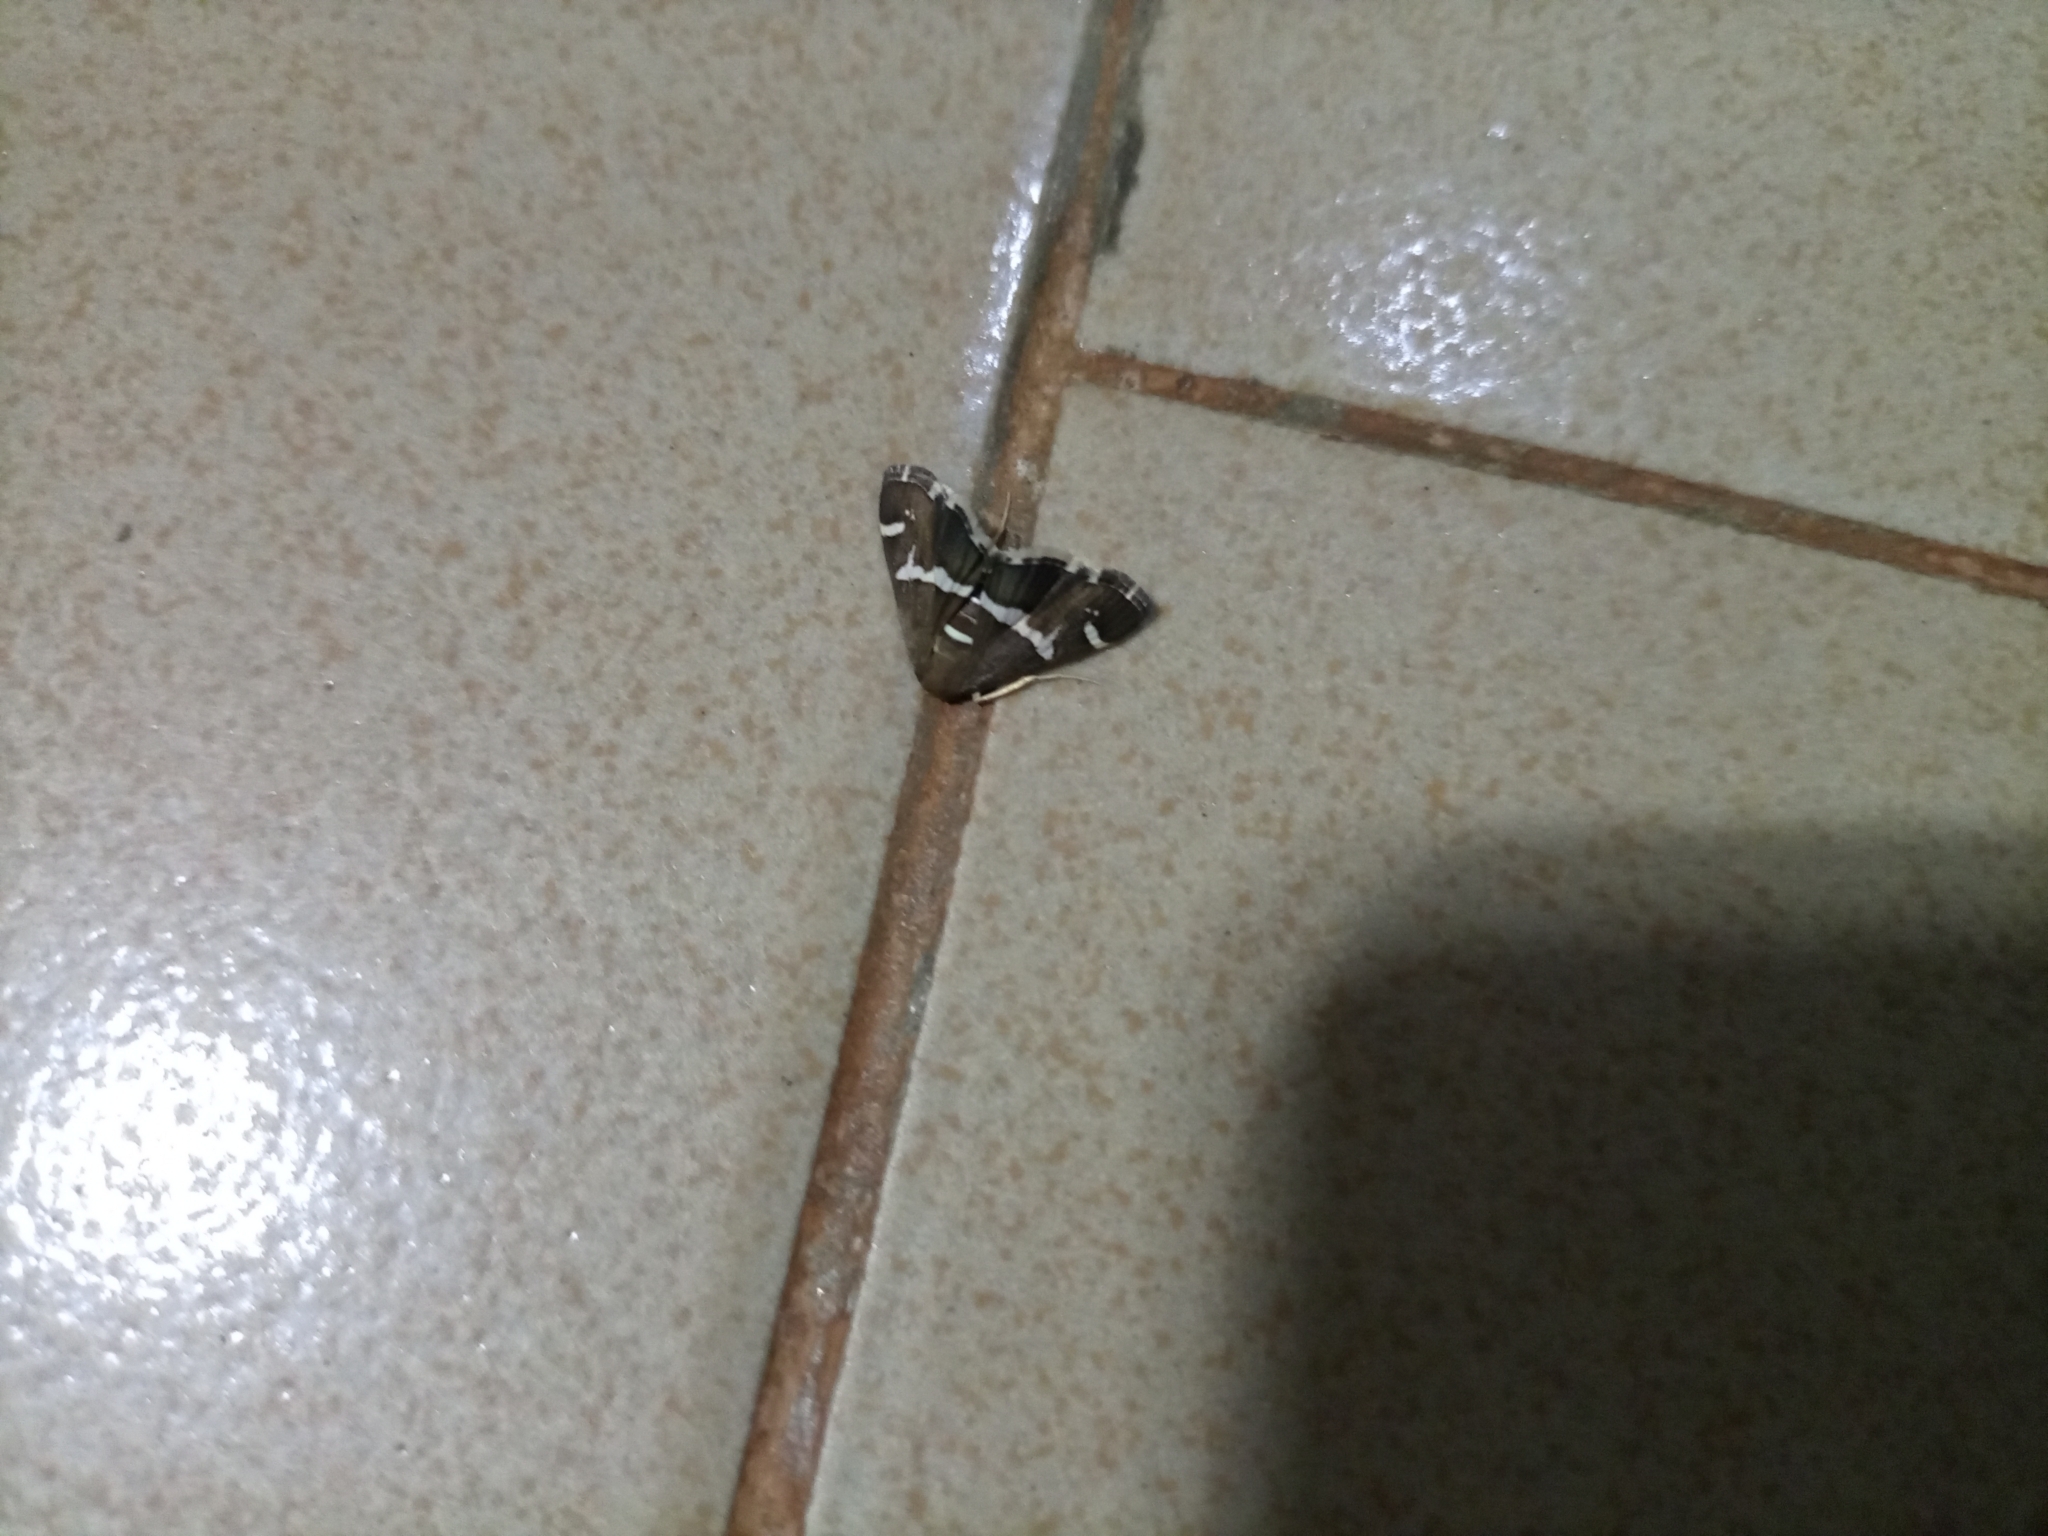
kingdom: Animalia
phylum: Arthropoda
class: Insecta
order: Lepidoptera
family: Crambidae
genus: Spoladea
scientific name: Spoladea recurvalis
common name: Beet webworm moth
